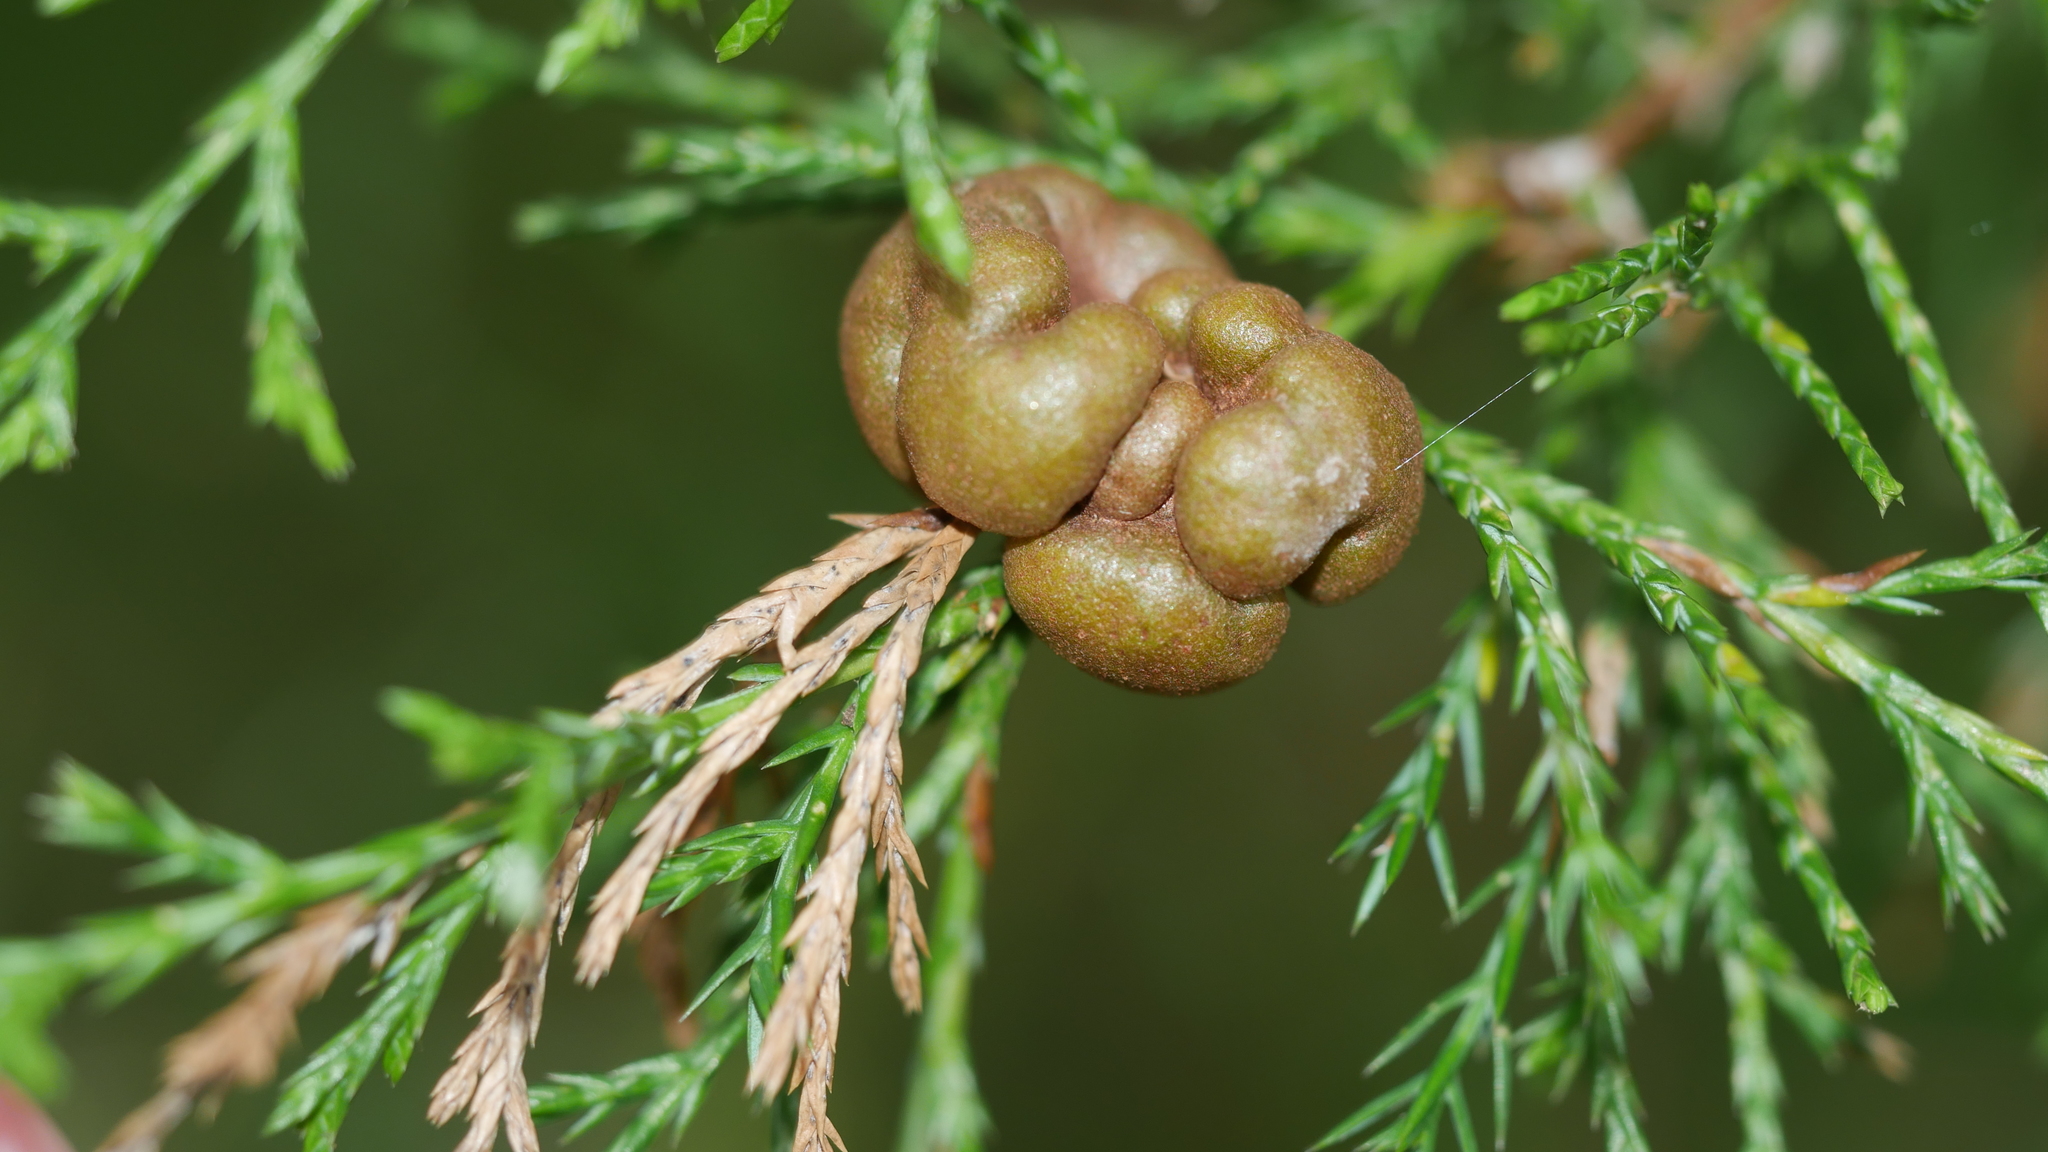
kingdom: Fungi
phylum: Basidiomycota
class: Pucciniomycetes
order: Pucciniales
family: Gymnosporangiaceae
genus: Gymnosporangium
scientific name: Gymnosporangium juniperi-virginianae
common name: Juniper-apple rust
